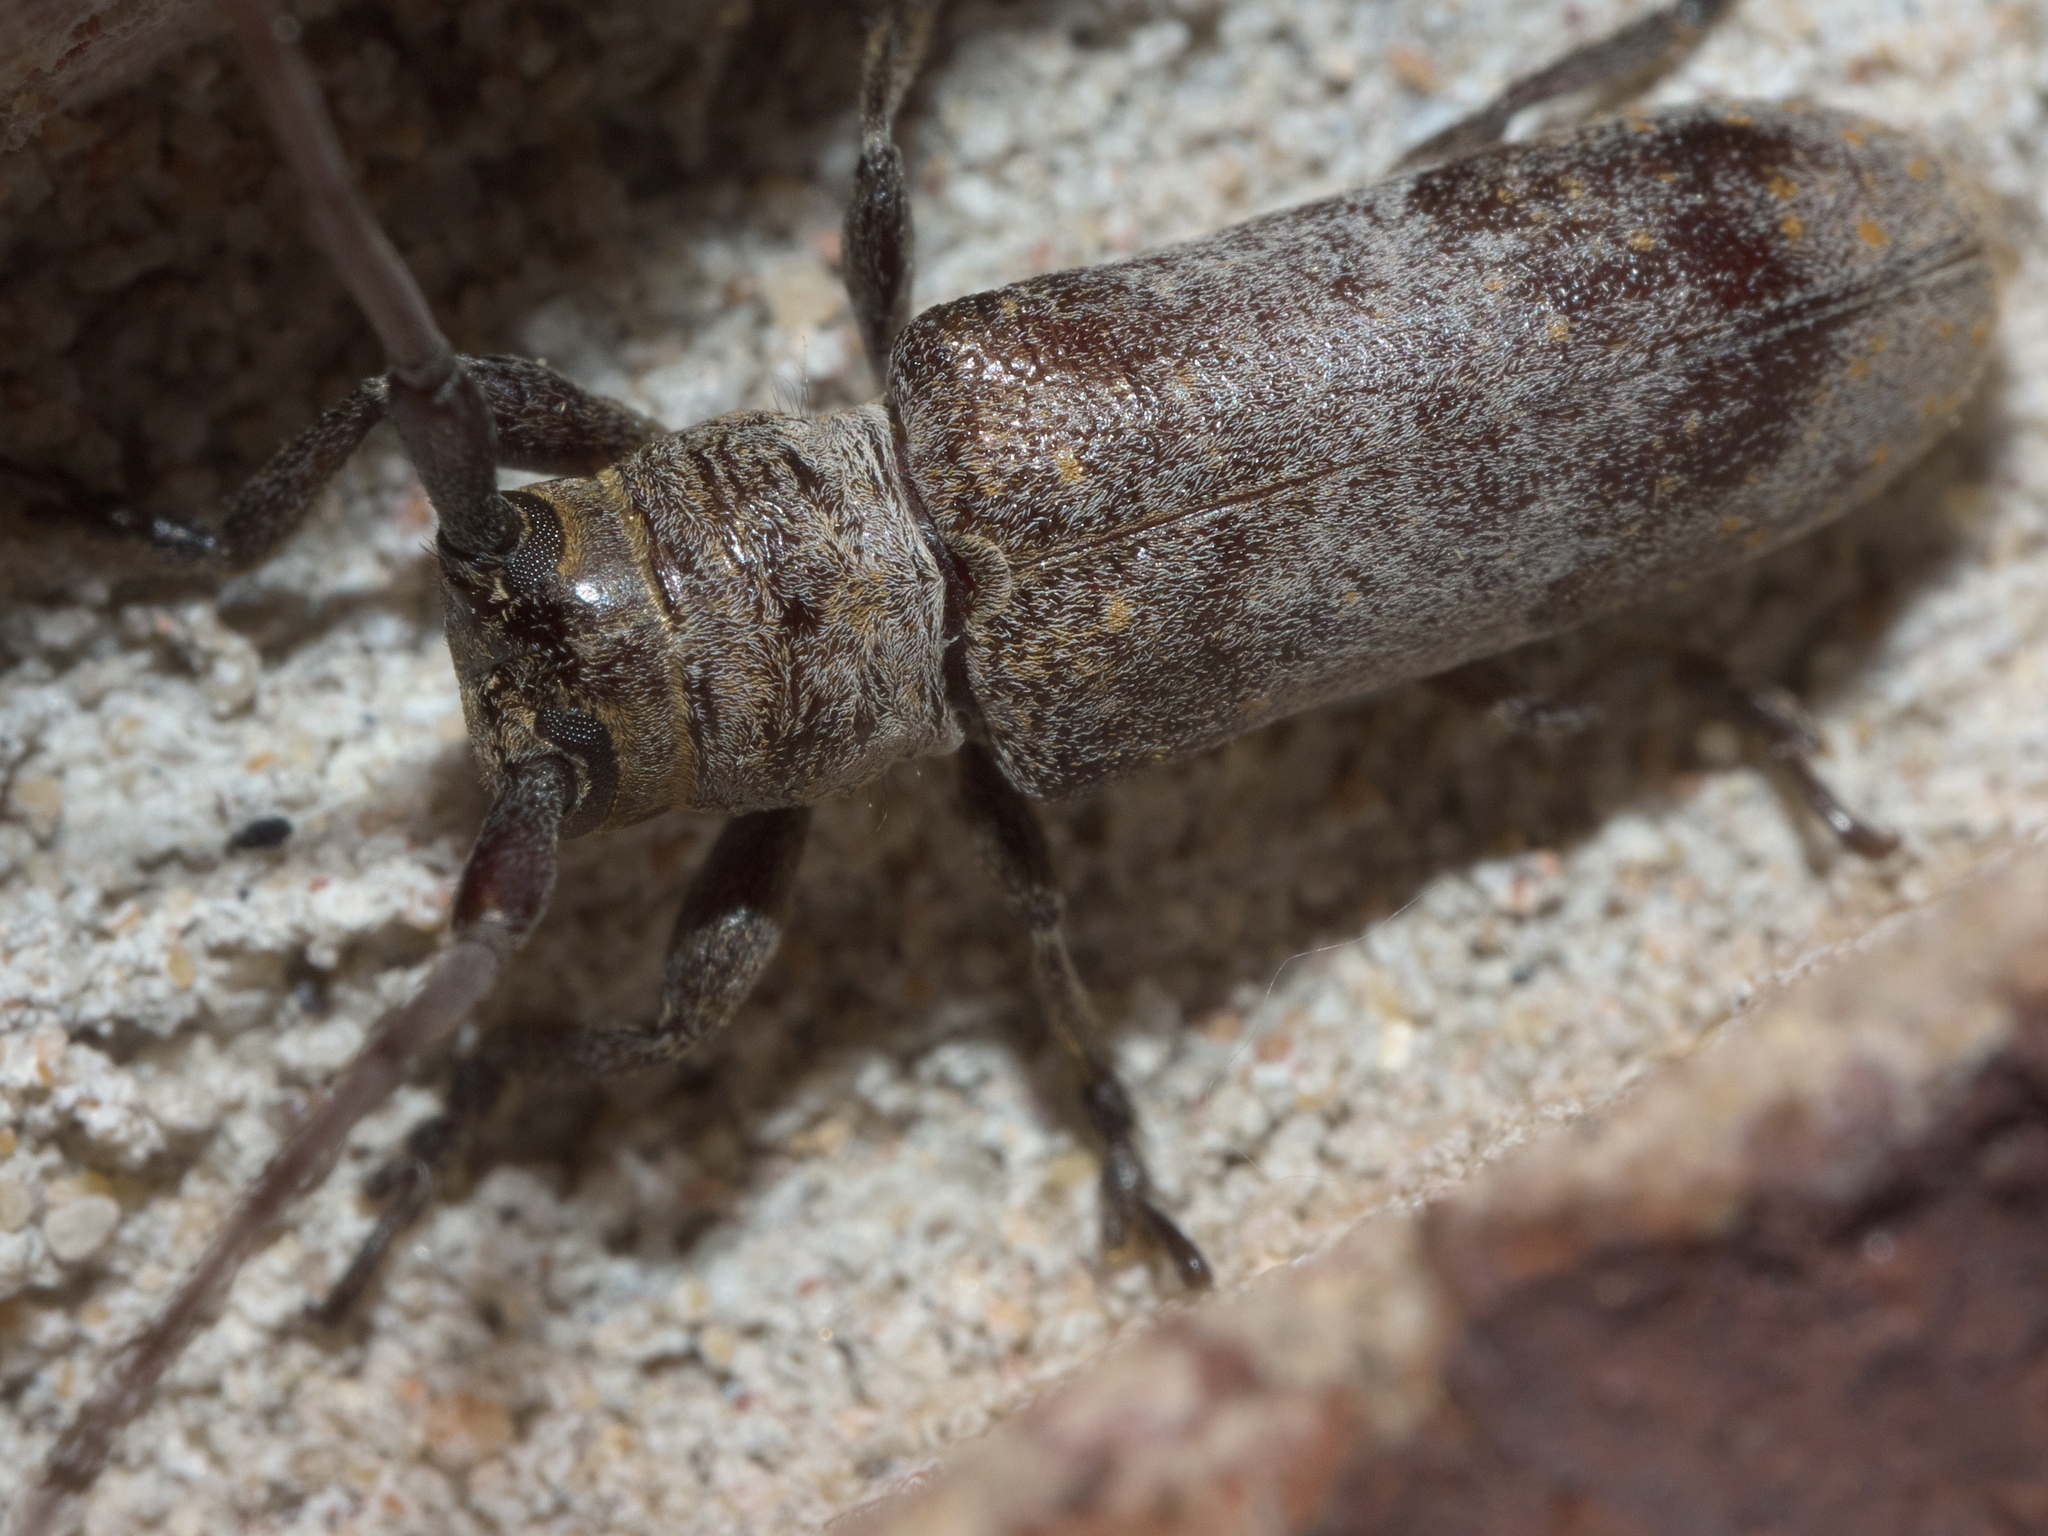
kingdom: Animalia
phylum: Arthropoda
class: Insecta
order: Coleoptera
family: Cerambycidae
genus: Oncideres
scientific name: Oncideres cingulata
